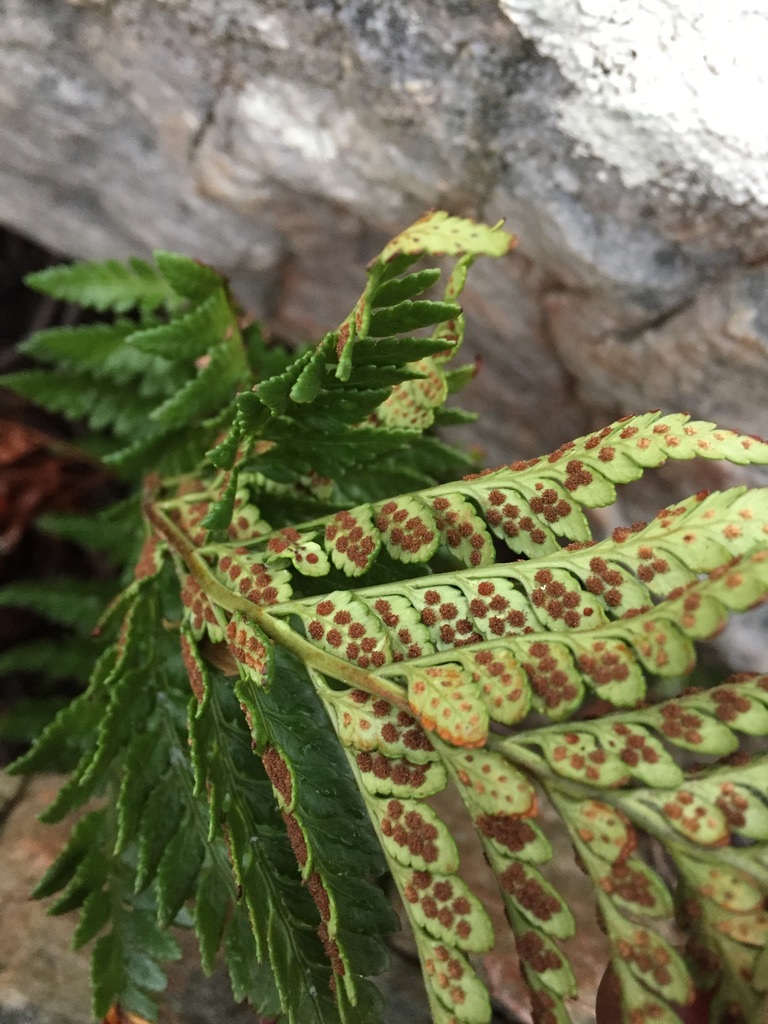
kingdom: Plantae
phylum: Tracheophyta
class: Polypodiopsida
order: Polypodiales
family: Dryopteridaceae
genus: Rumohra
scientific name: Rumohra adiantiformis
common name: Leather fern
